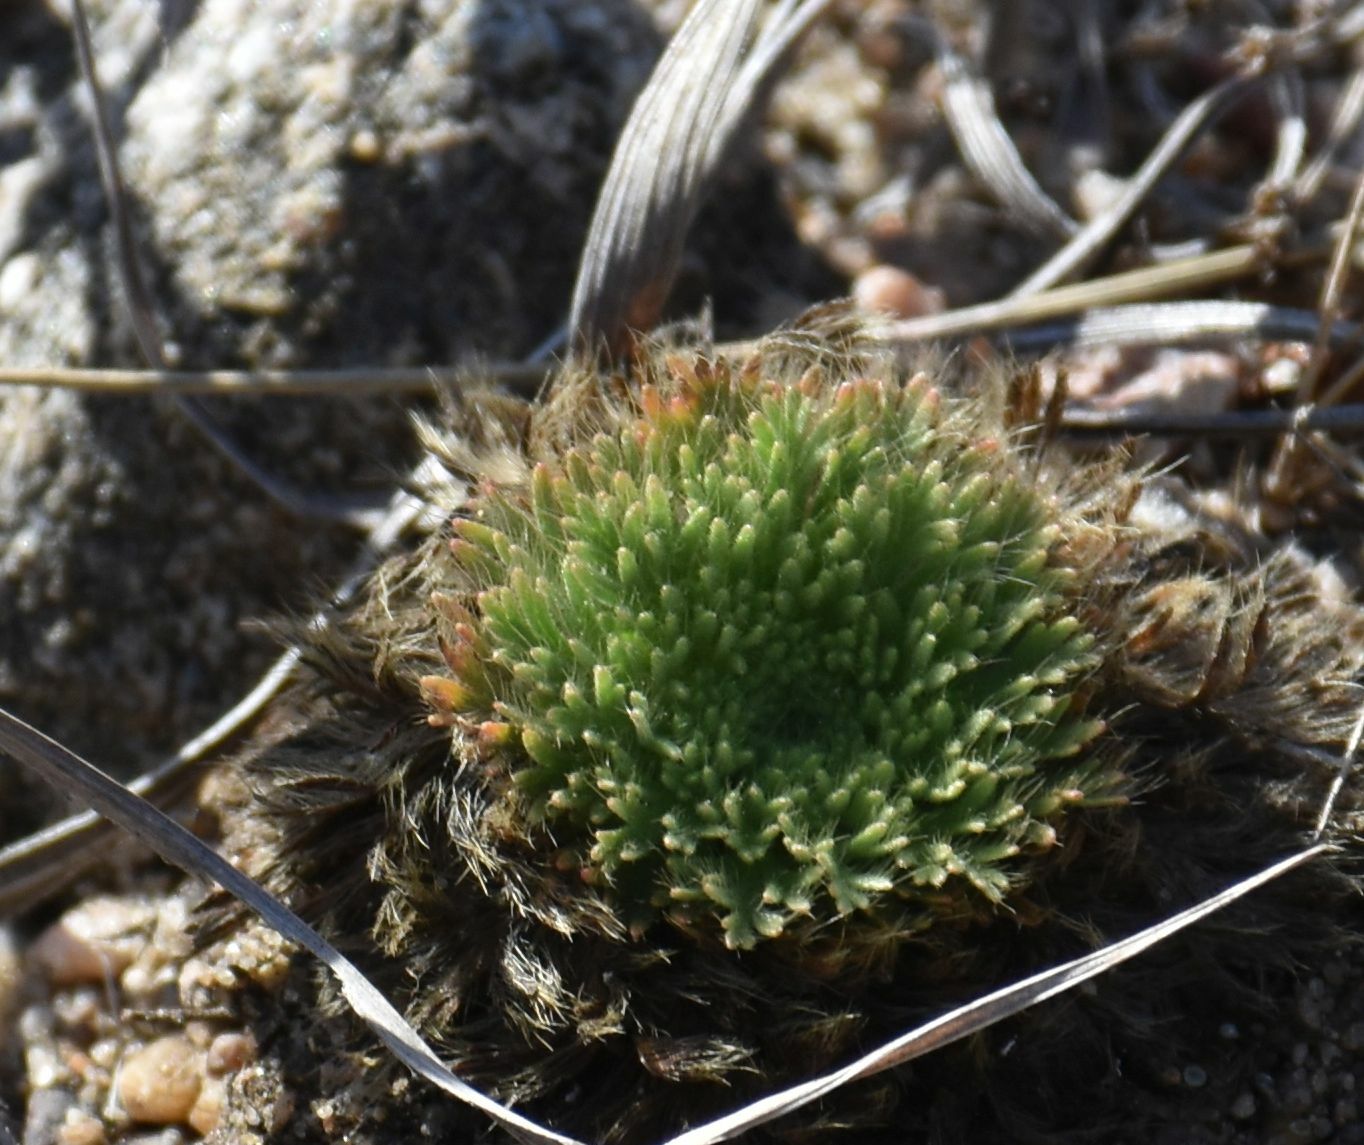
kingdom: Plantae
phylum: Tracheophyta
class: Magnoliopsida
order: Rosales
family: Rosaceae
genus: Chamaerhodos
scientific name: Chamaerhodos erecta
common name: American chamaerhodos
